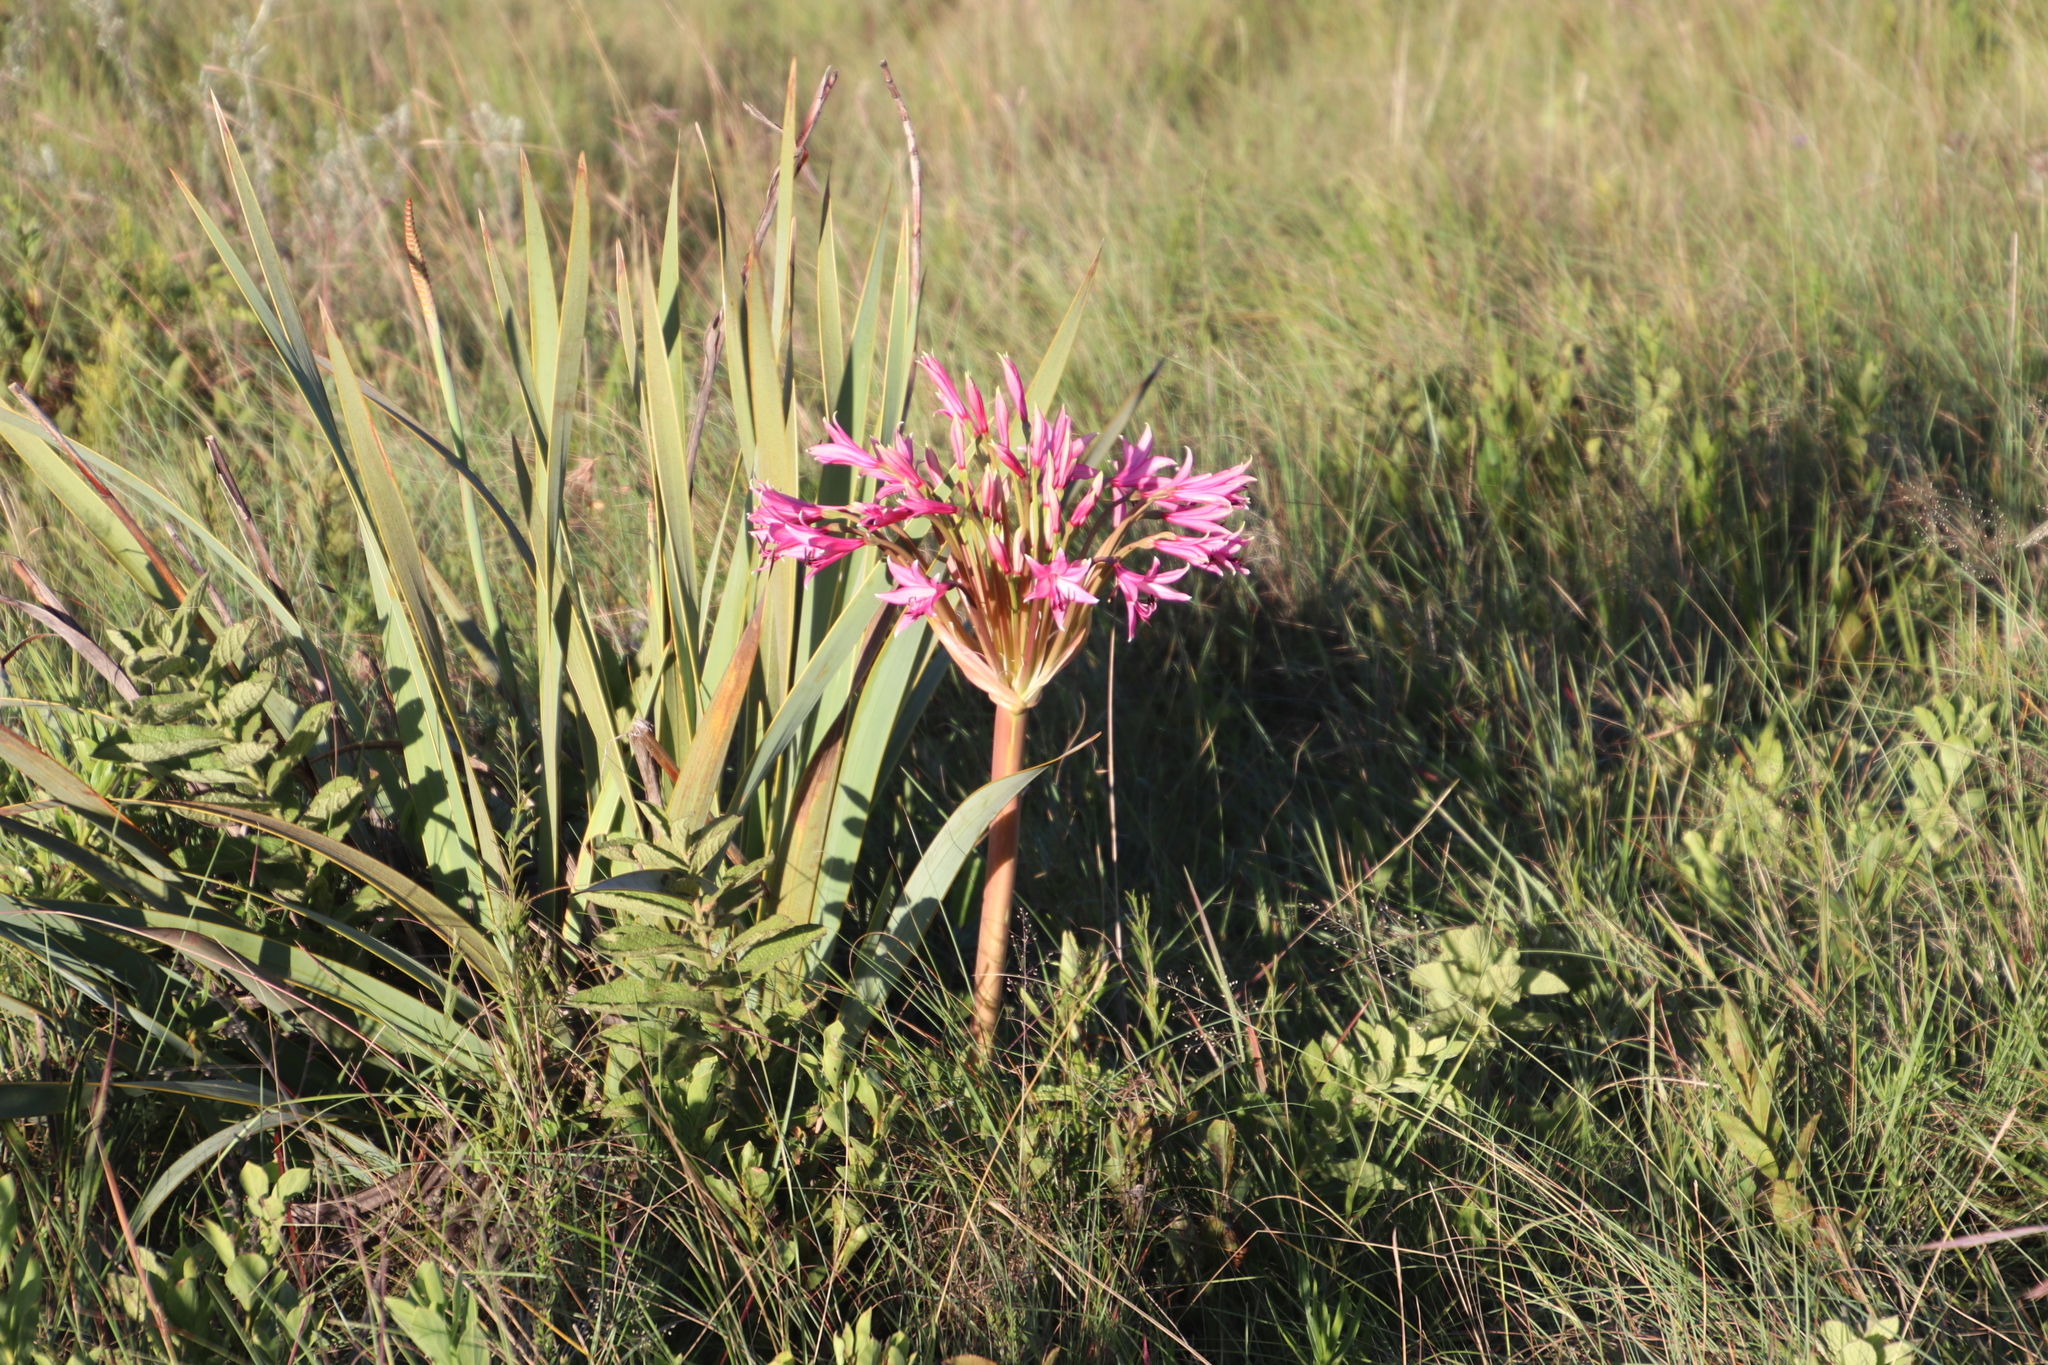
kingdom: Plantae
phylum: Tracheophyta
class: Liliopsida
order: Asparagales
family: Amaryllidaceae
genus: Brunsvigia
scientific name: Brunsvigia radulosa
